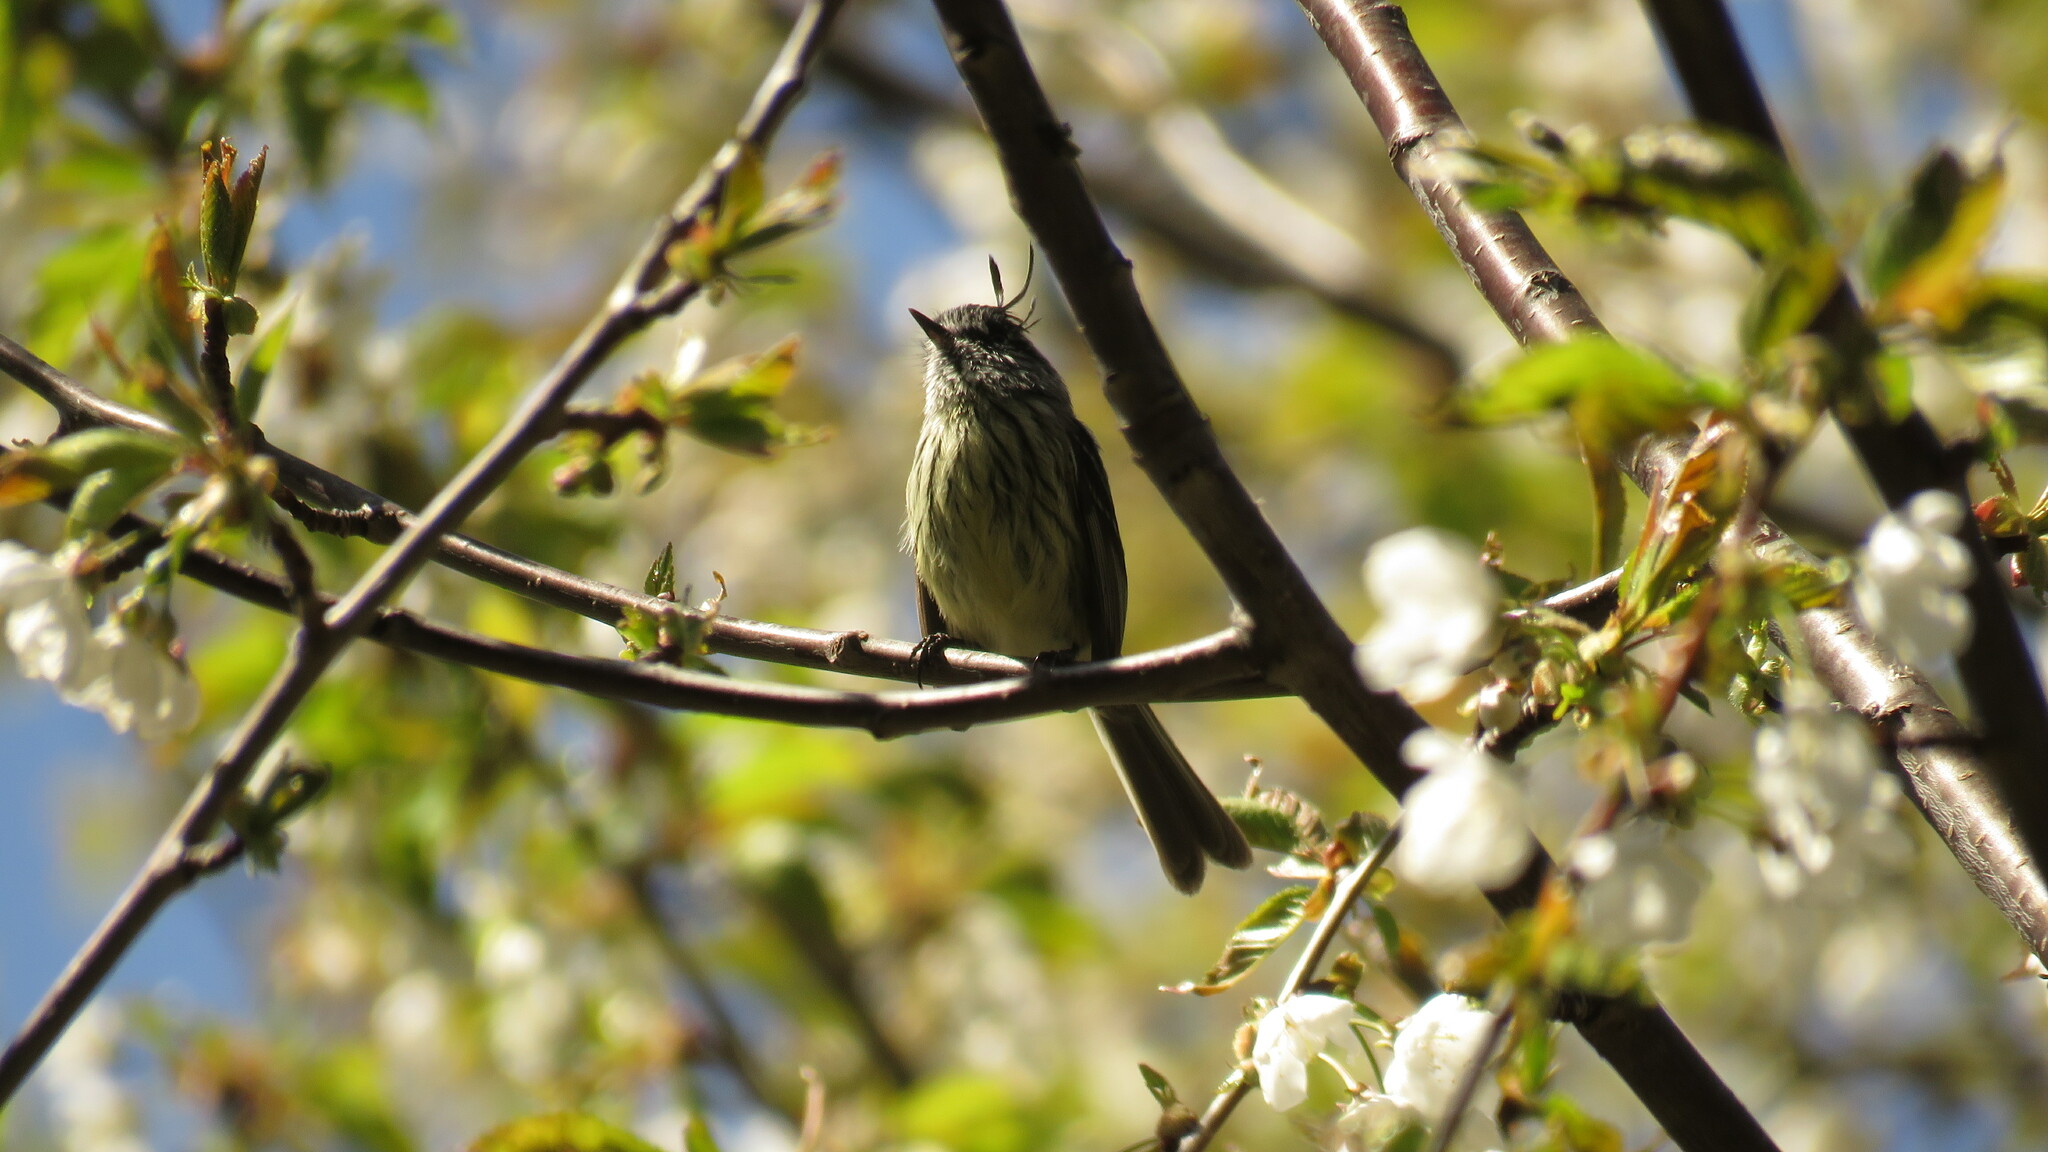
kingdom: Animalia
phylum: Chordata
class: Aves
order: Passeriformes
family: Tyrannidae
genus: Anairetes
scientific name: Anairetes parulus
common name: Tufted tit-tyrant
